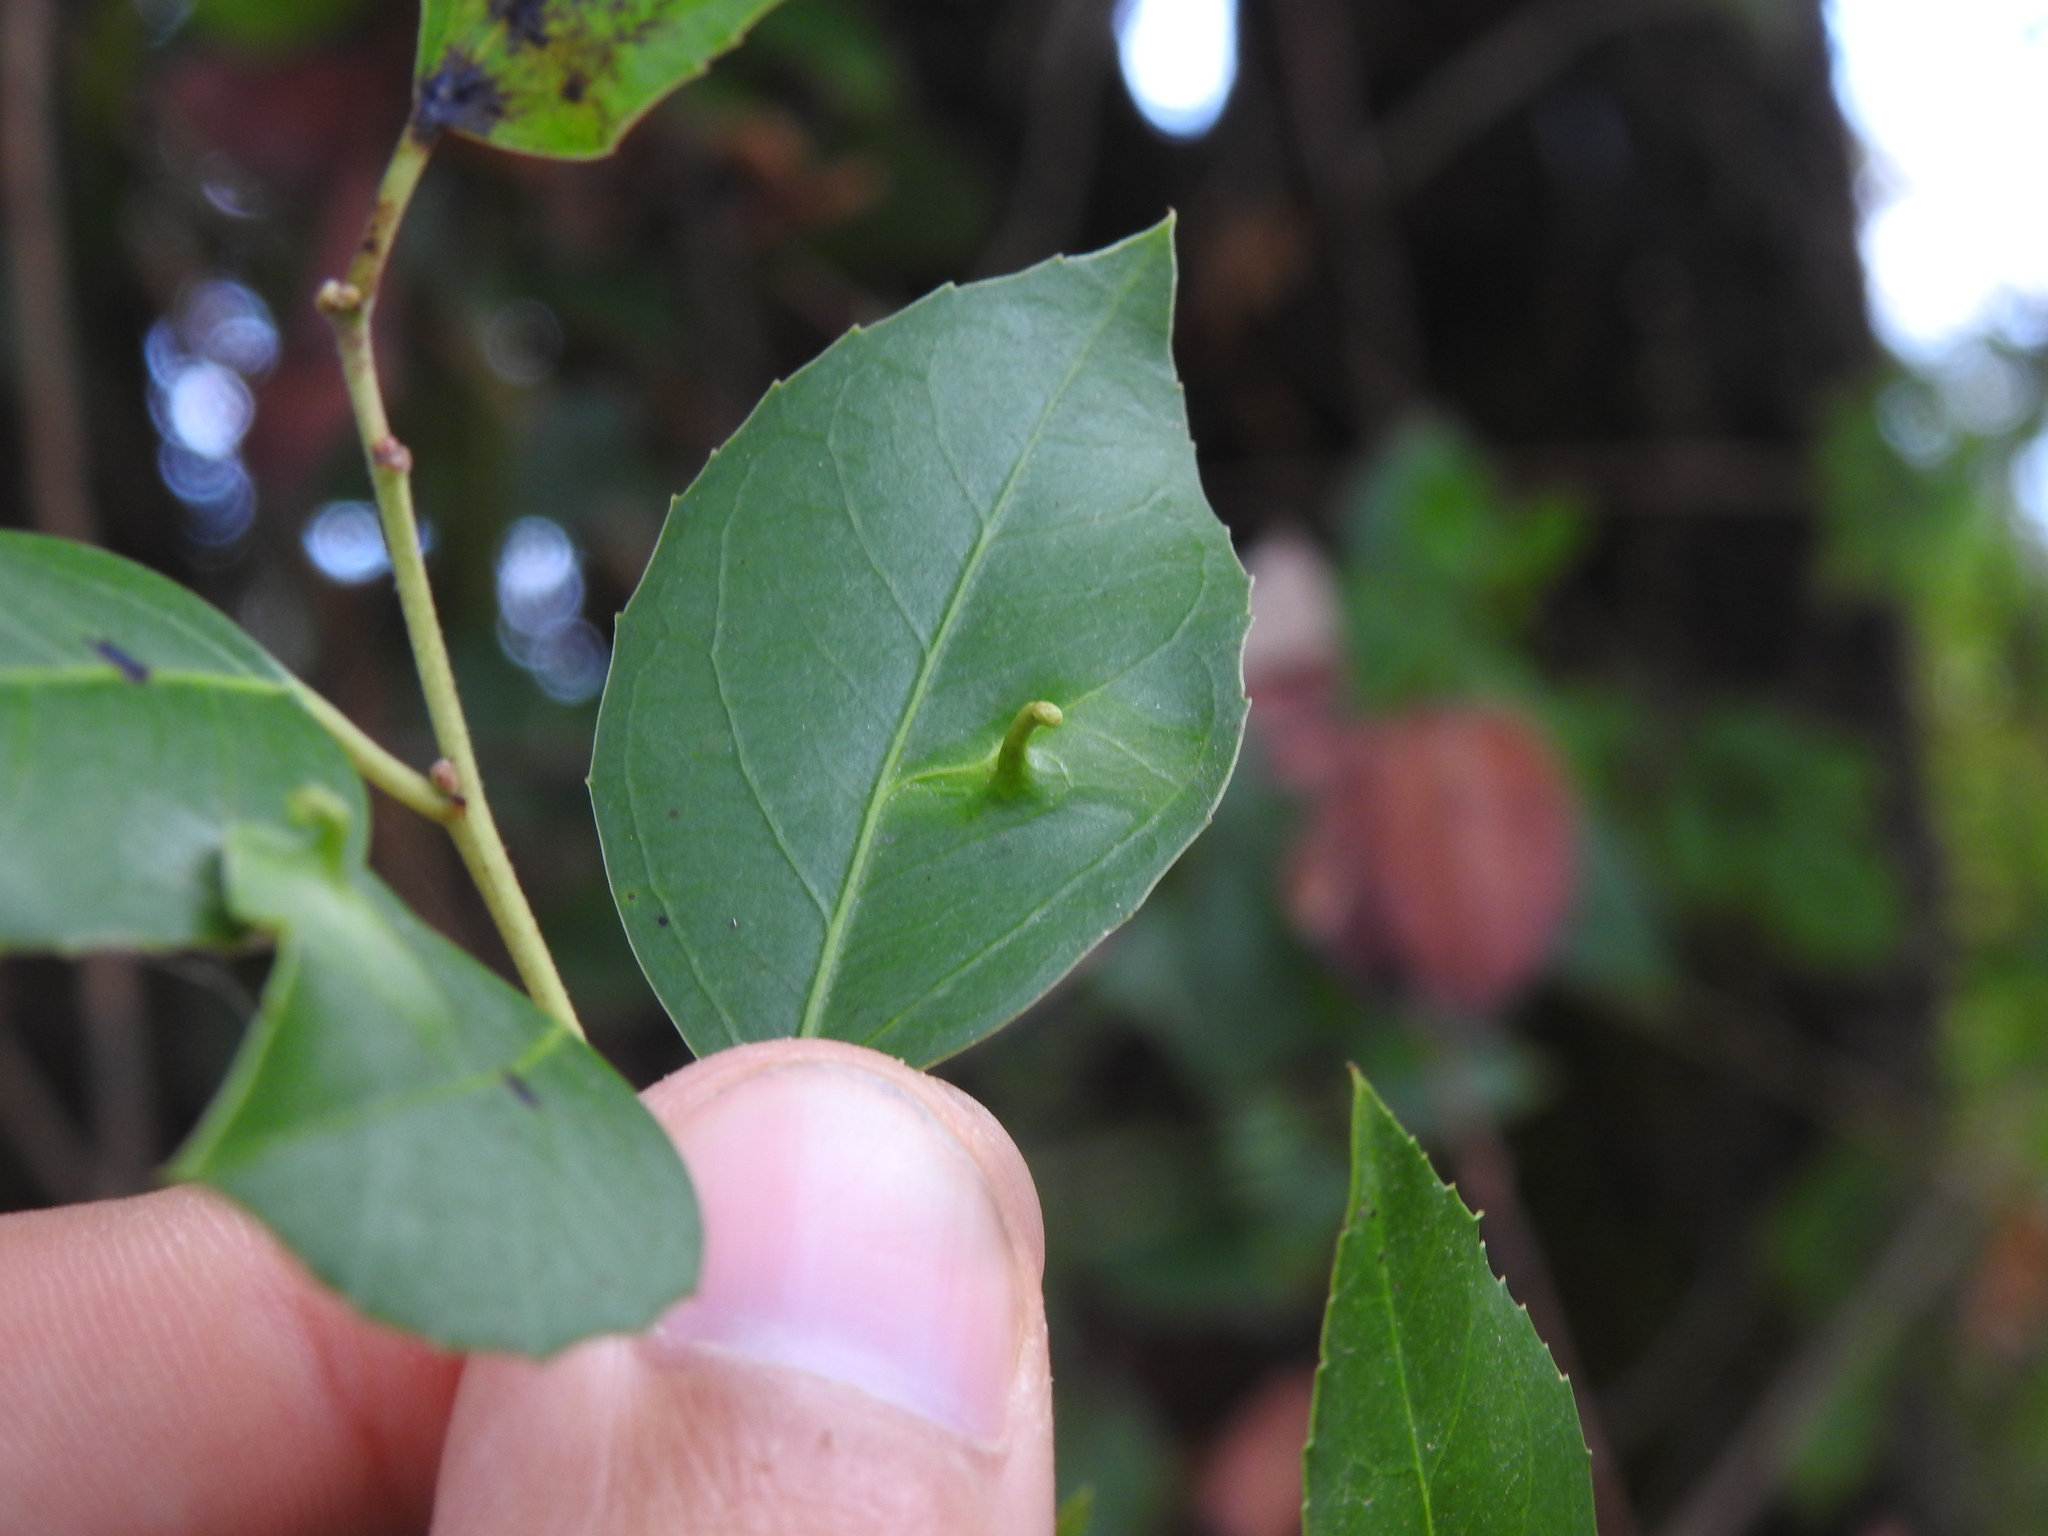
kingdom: Animalia
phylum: Arthropoda
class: Insecta
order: Hemiptera
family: Triozidae
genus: Trioza
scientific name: Trioza kiefferi
